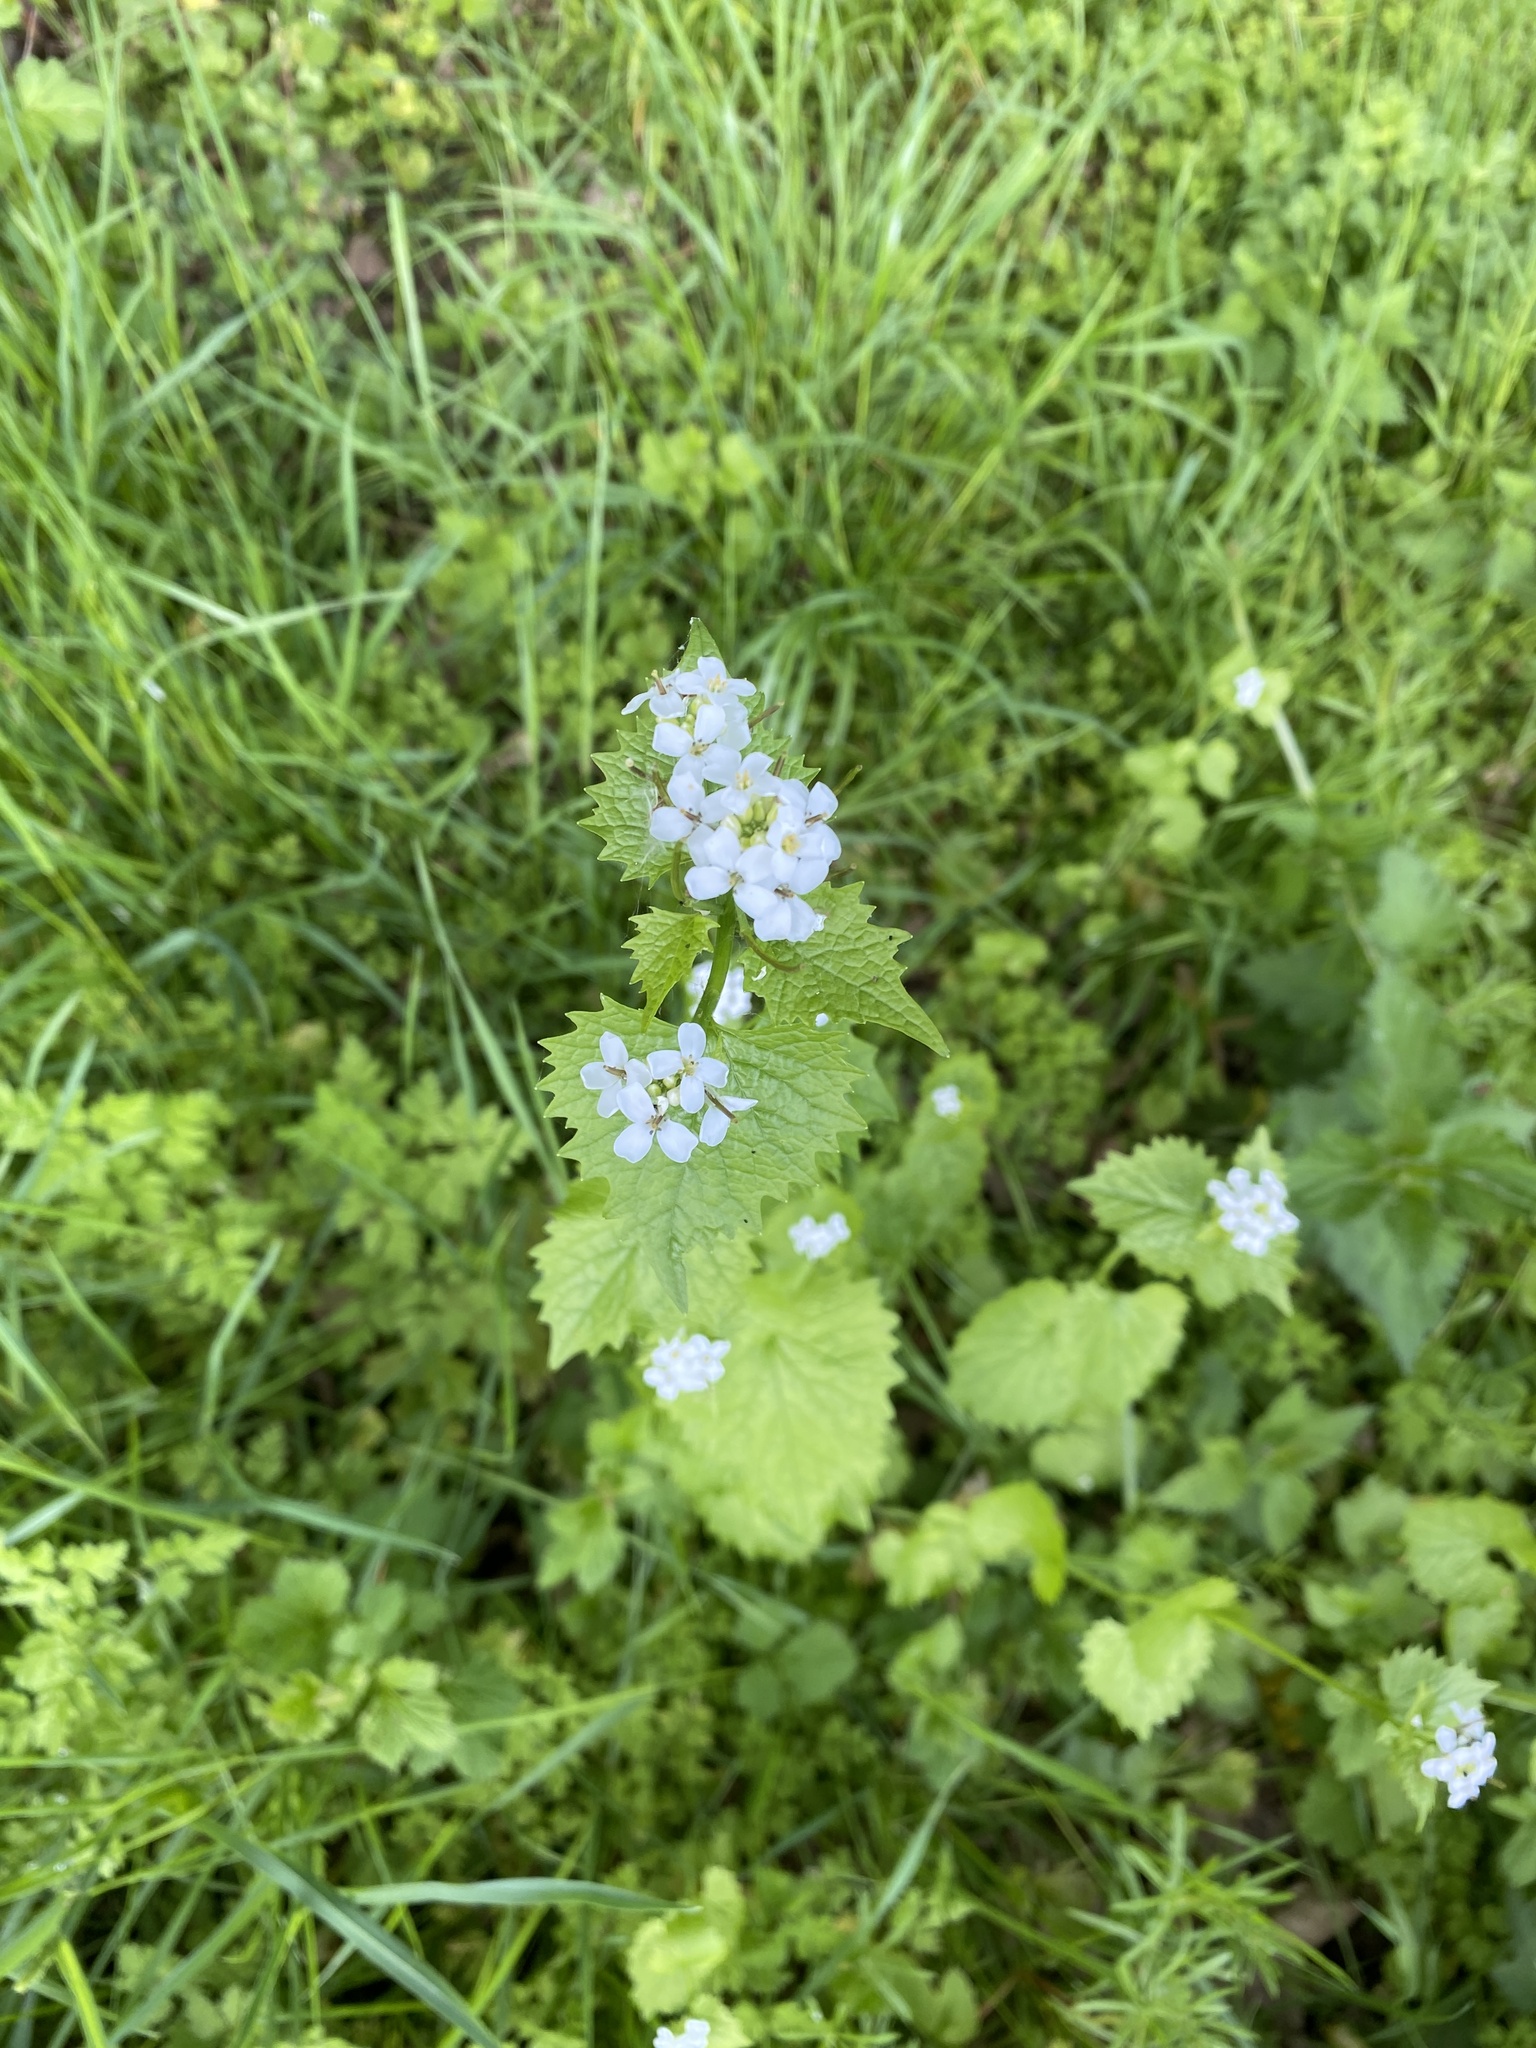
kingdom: Plantae
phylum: Tracheophyta
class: Magnoliopsida
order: Brassicales
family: Brassicaceae
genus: Alliaria
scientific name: Alliaria petiolata
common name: Garlic mustard
